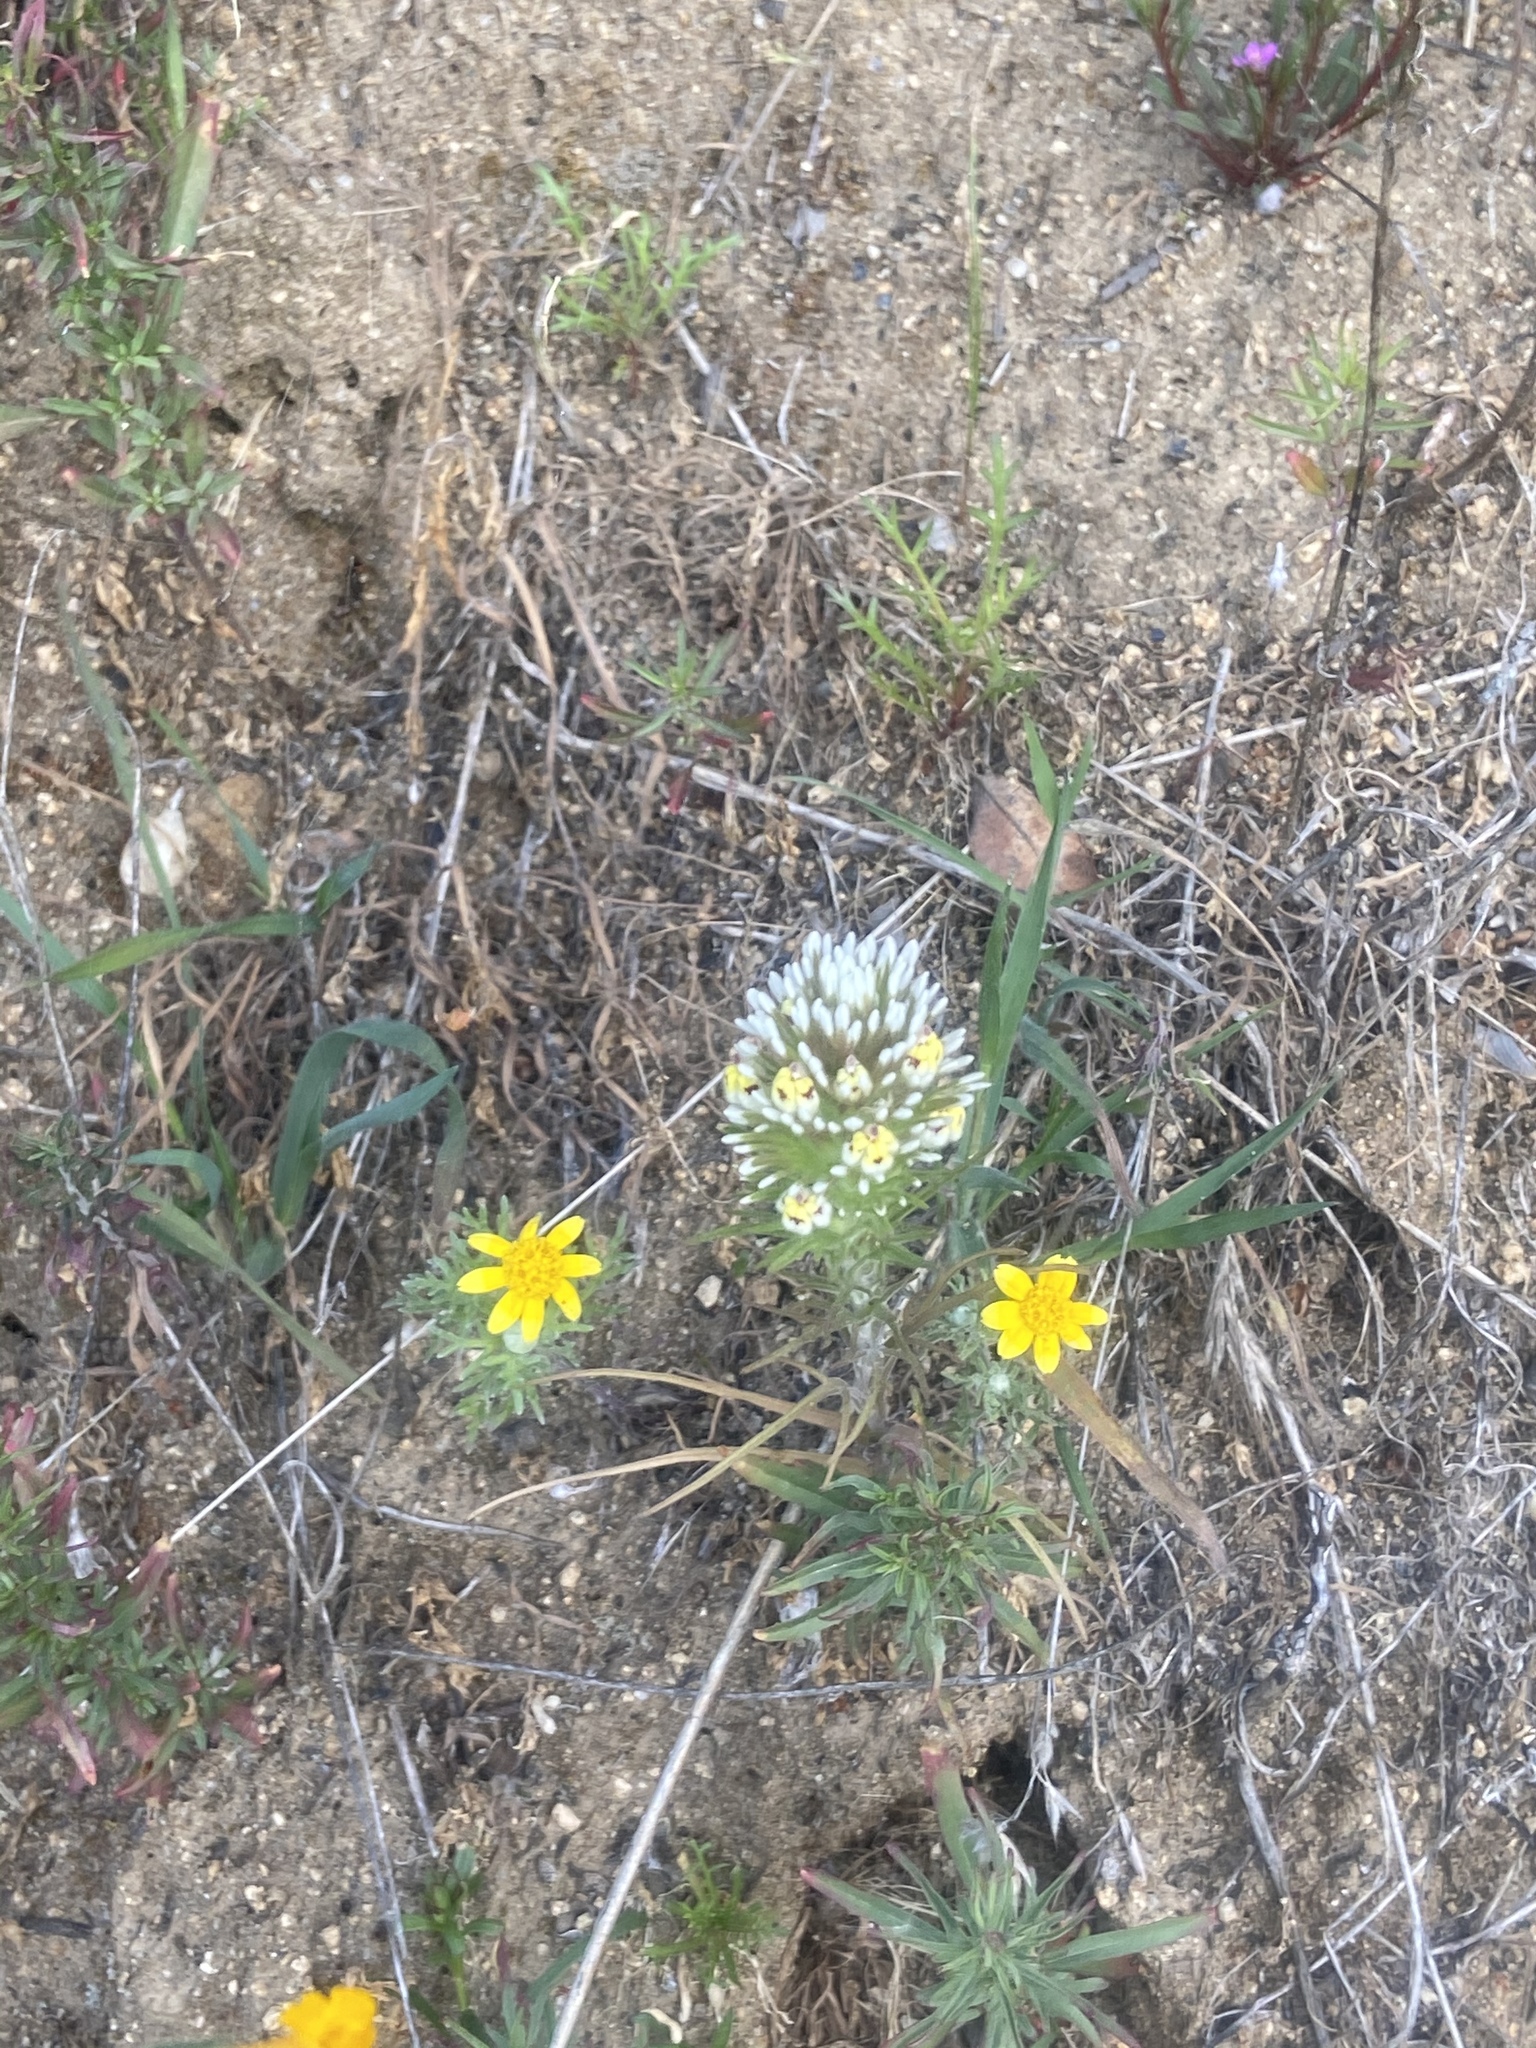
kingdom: Plantae
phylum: Tracheophyta
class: Magnoliopsida
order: Lamiales
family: Orobanchaceae
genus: Castilleja
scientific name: Castilleja lineariloba
